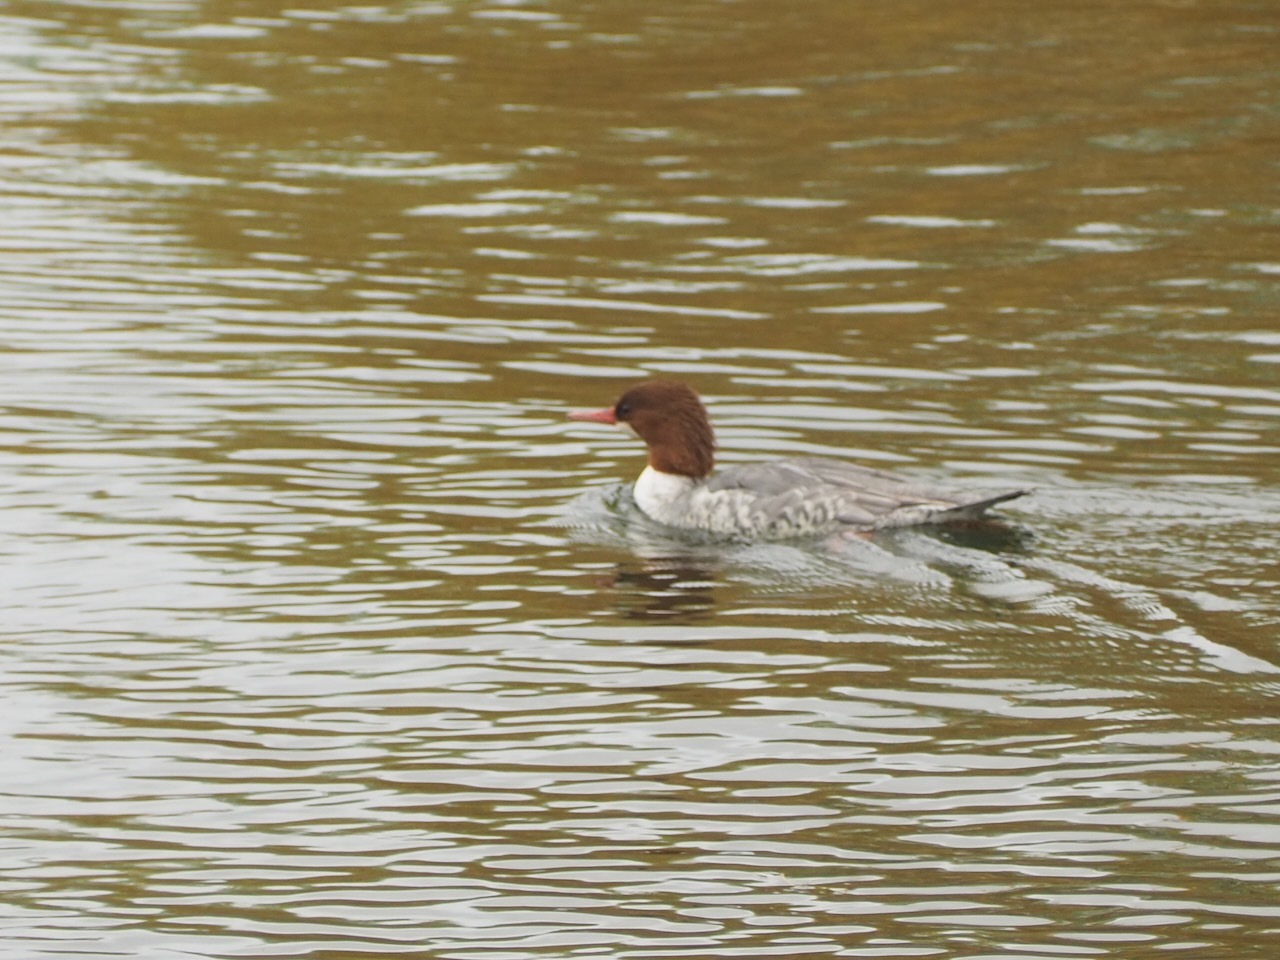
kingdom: Animalia
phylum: Chordata
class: Aves
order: Anseriformes
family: Anatidae
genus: Mergus
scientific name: Mergus merganser
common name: Common merganser
